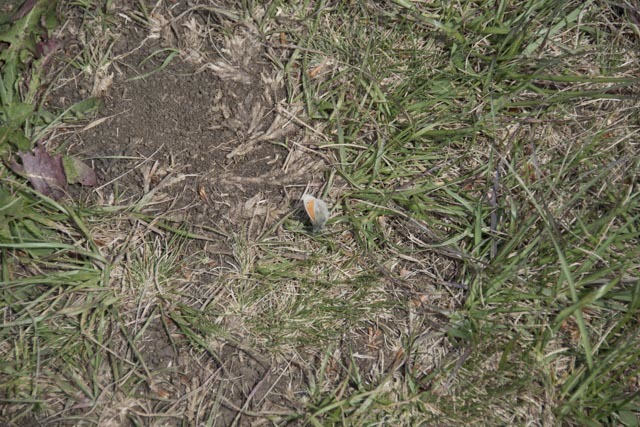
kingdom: Animalia
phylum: Arthropoda
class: Insecta
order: Lepidoptera
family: Nymphalidae
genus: Coenonympha
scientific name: Coenonympha pamphilus
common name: Small heath
